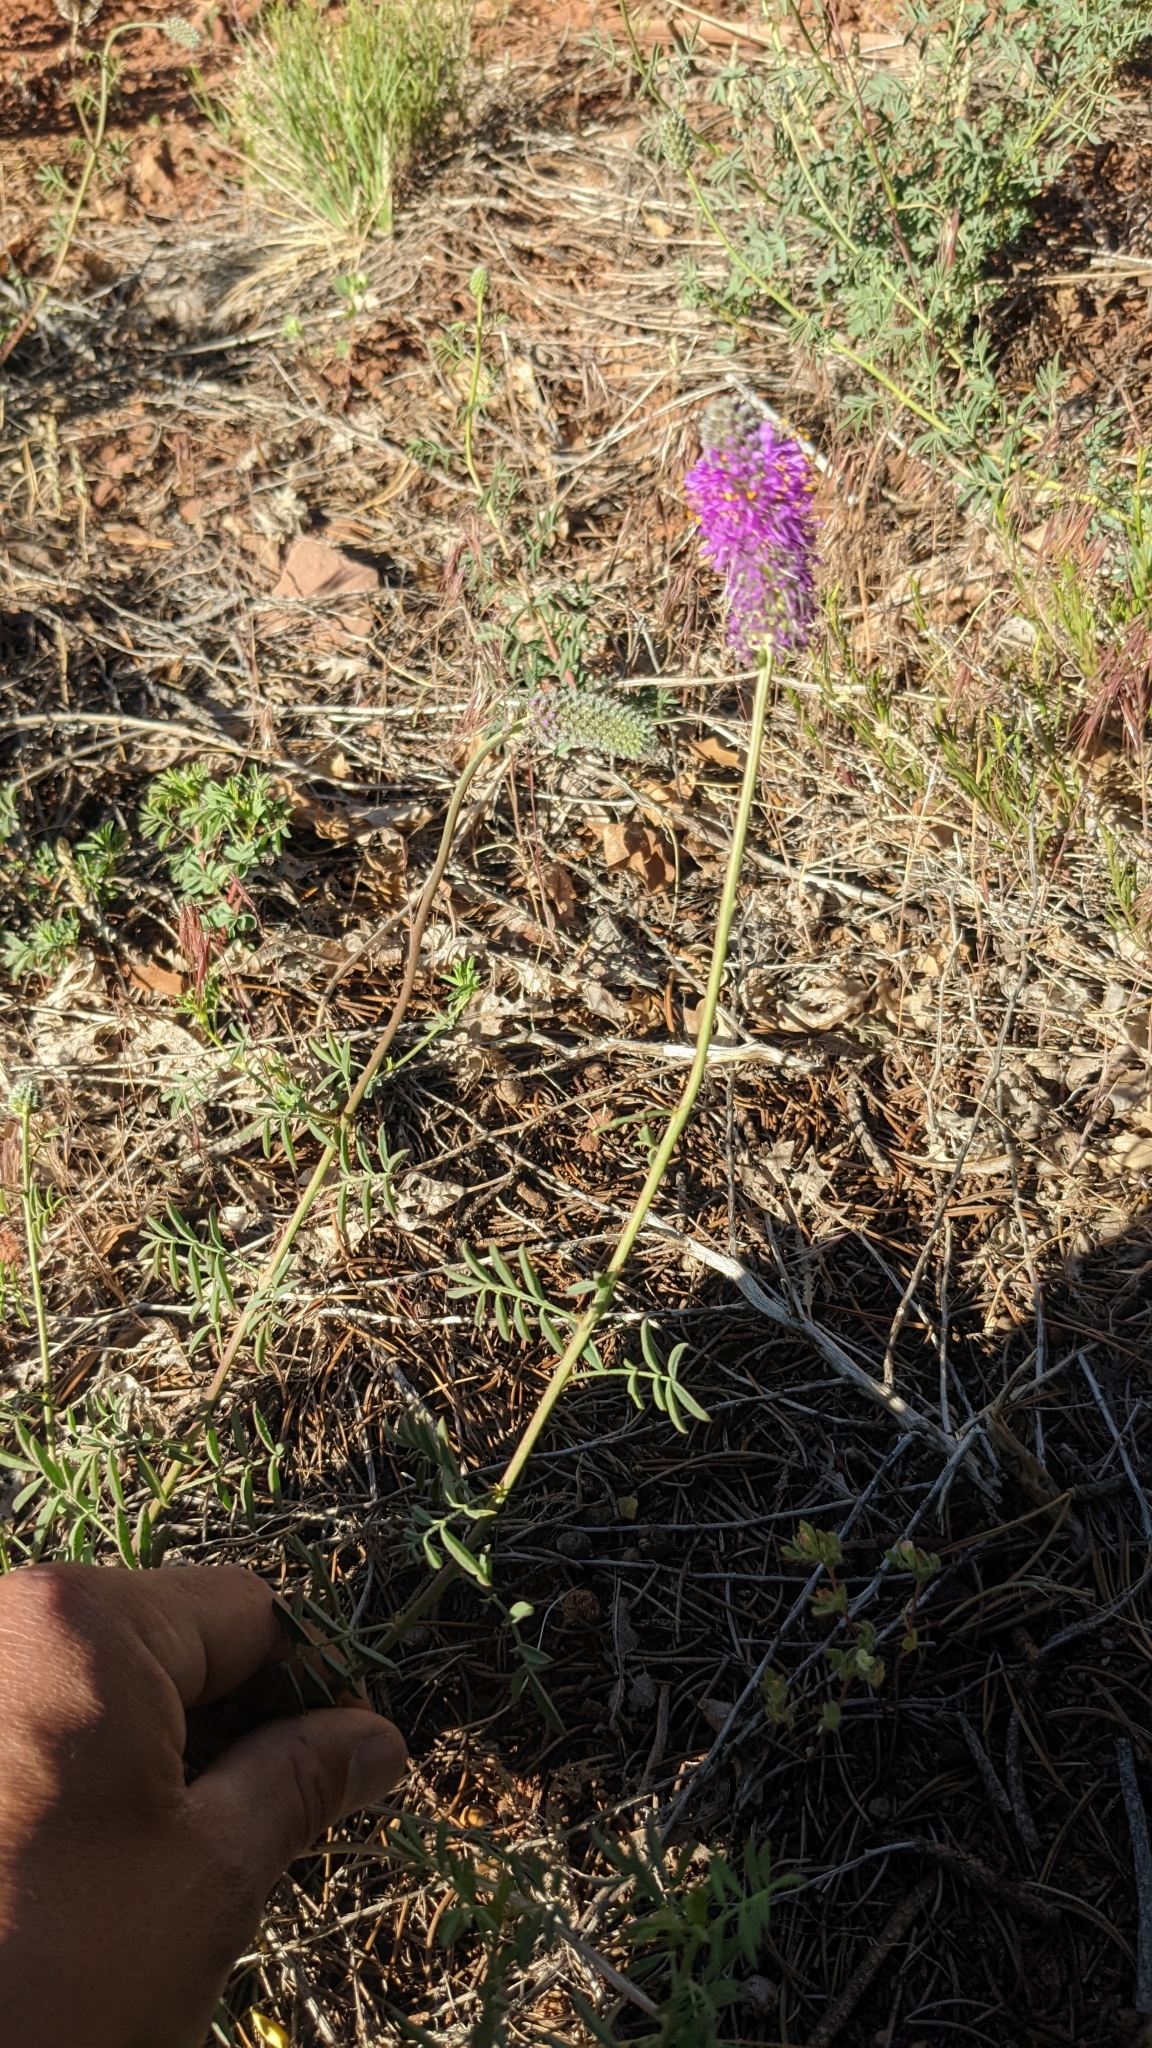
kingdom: Plantae
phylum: Tracheophyta
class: Magnoliopsida
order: Fabales
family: Fabaceae
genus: Dalea
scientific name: Dalea searlsiae
